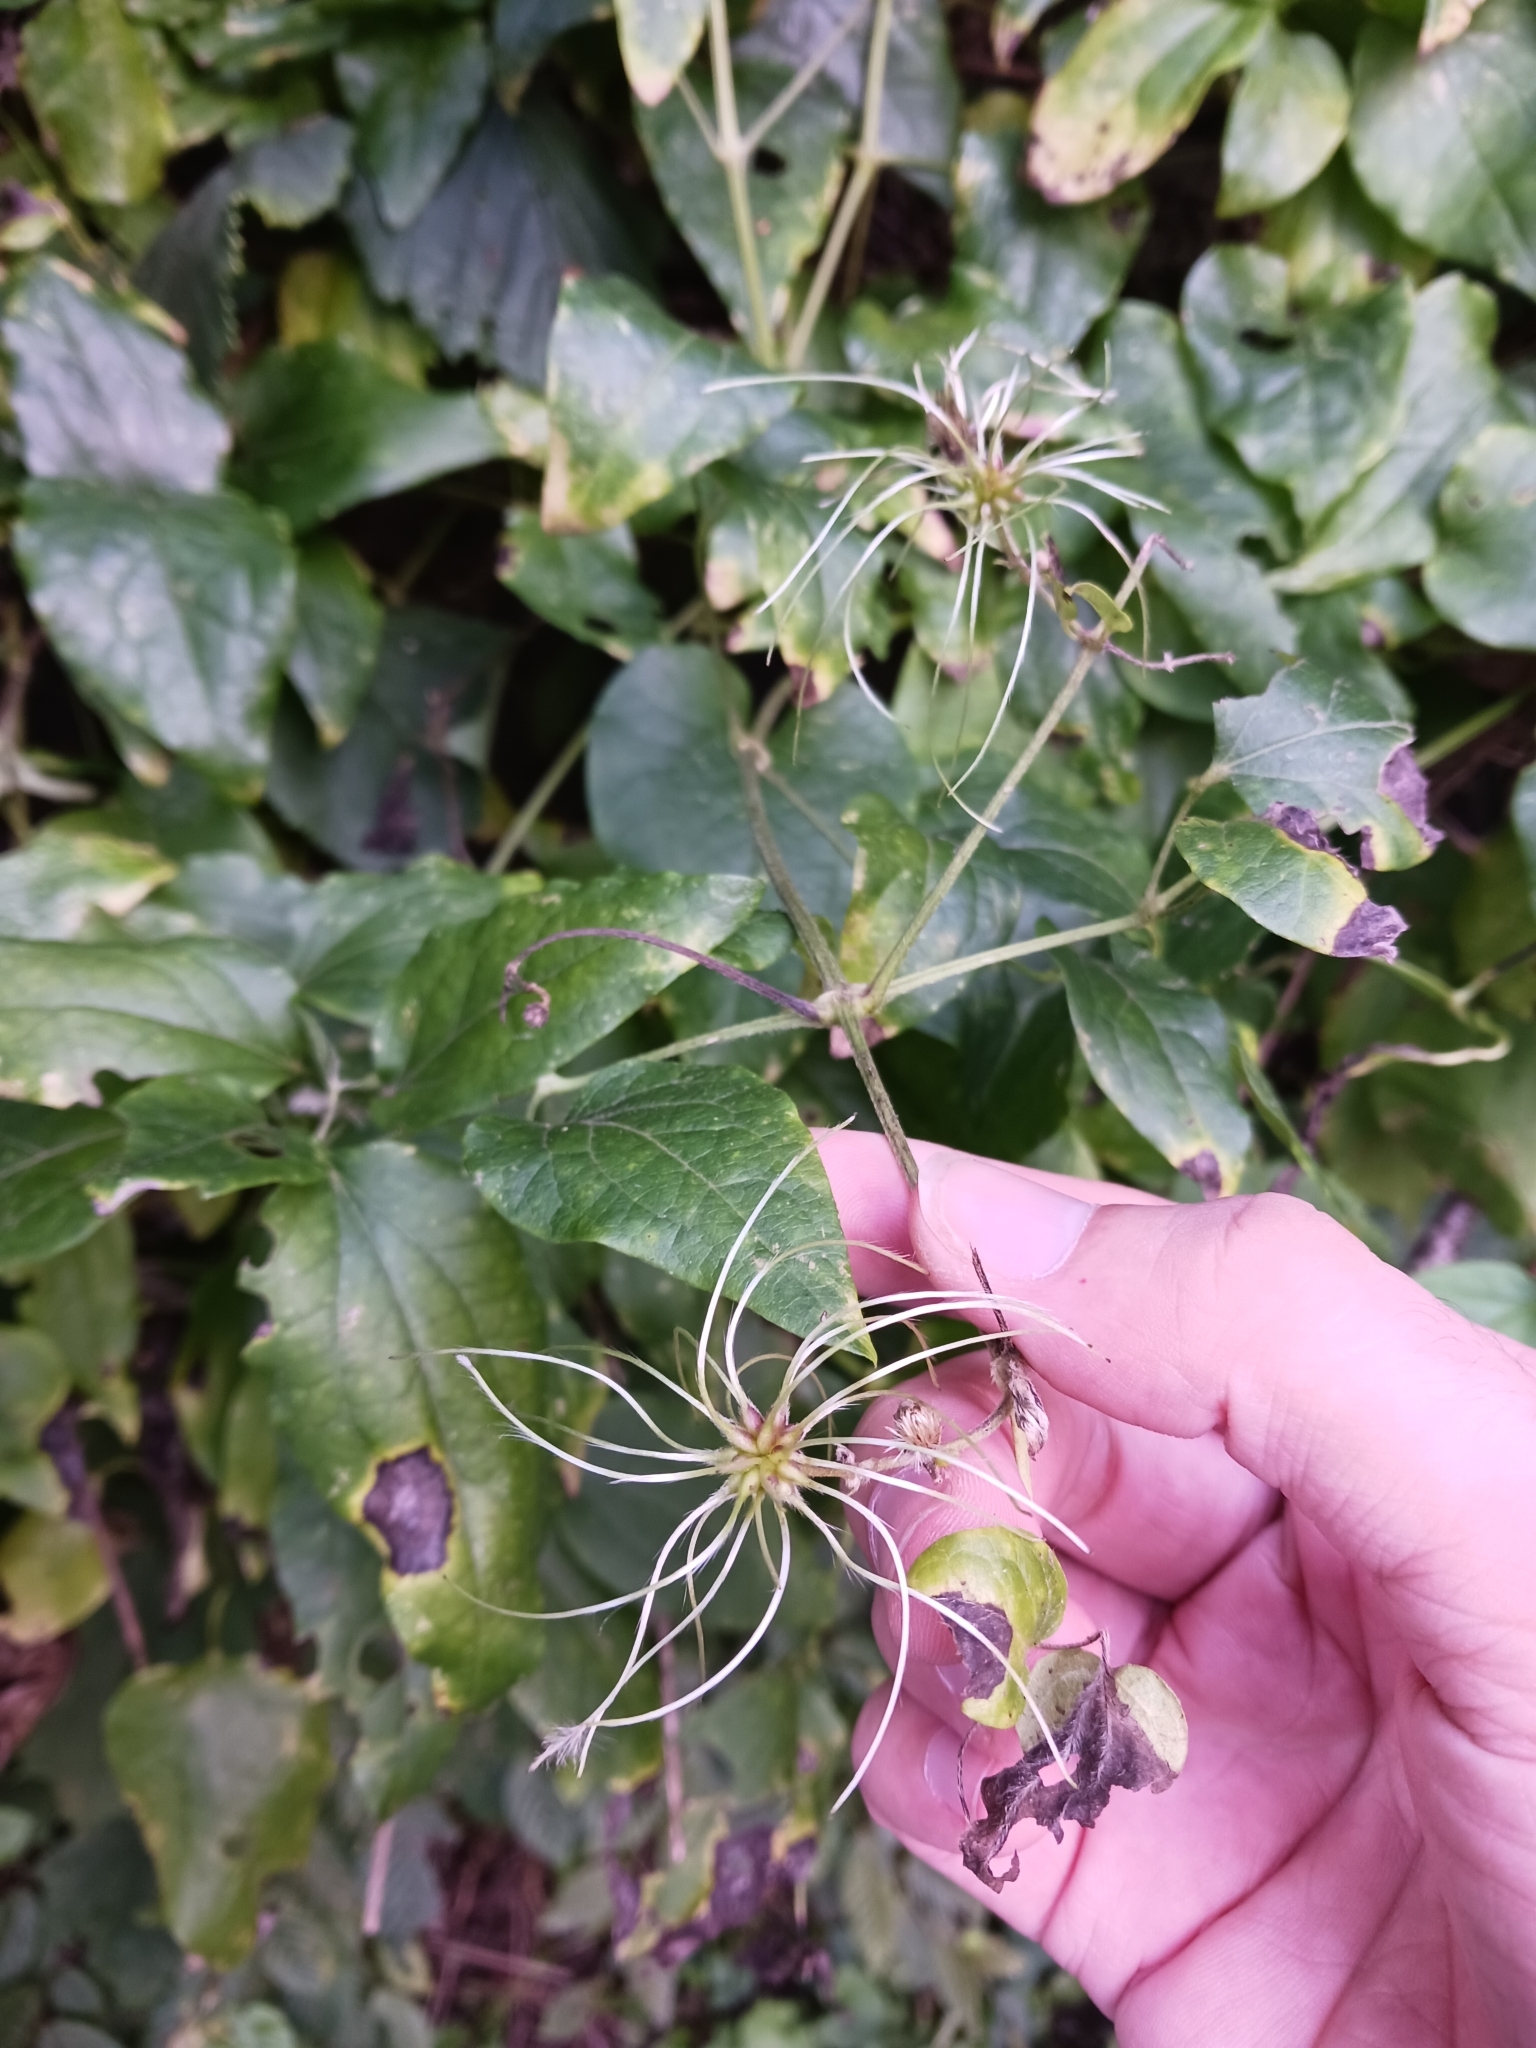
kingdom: Plantae
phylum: Tracheophyta
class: Magnoliopsida
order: Ranunculales
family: Ranunculaceae
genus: Clematis
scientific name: Clematis vitalba
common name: Evergreen clematis
